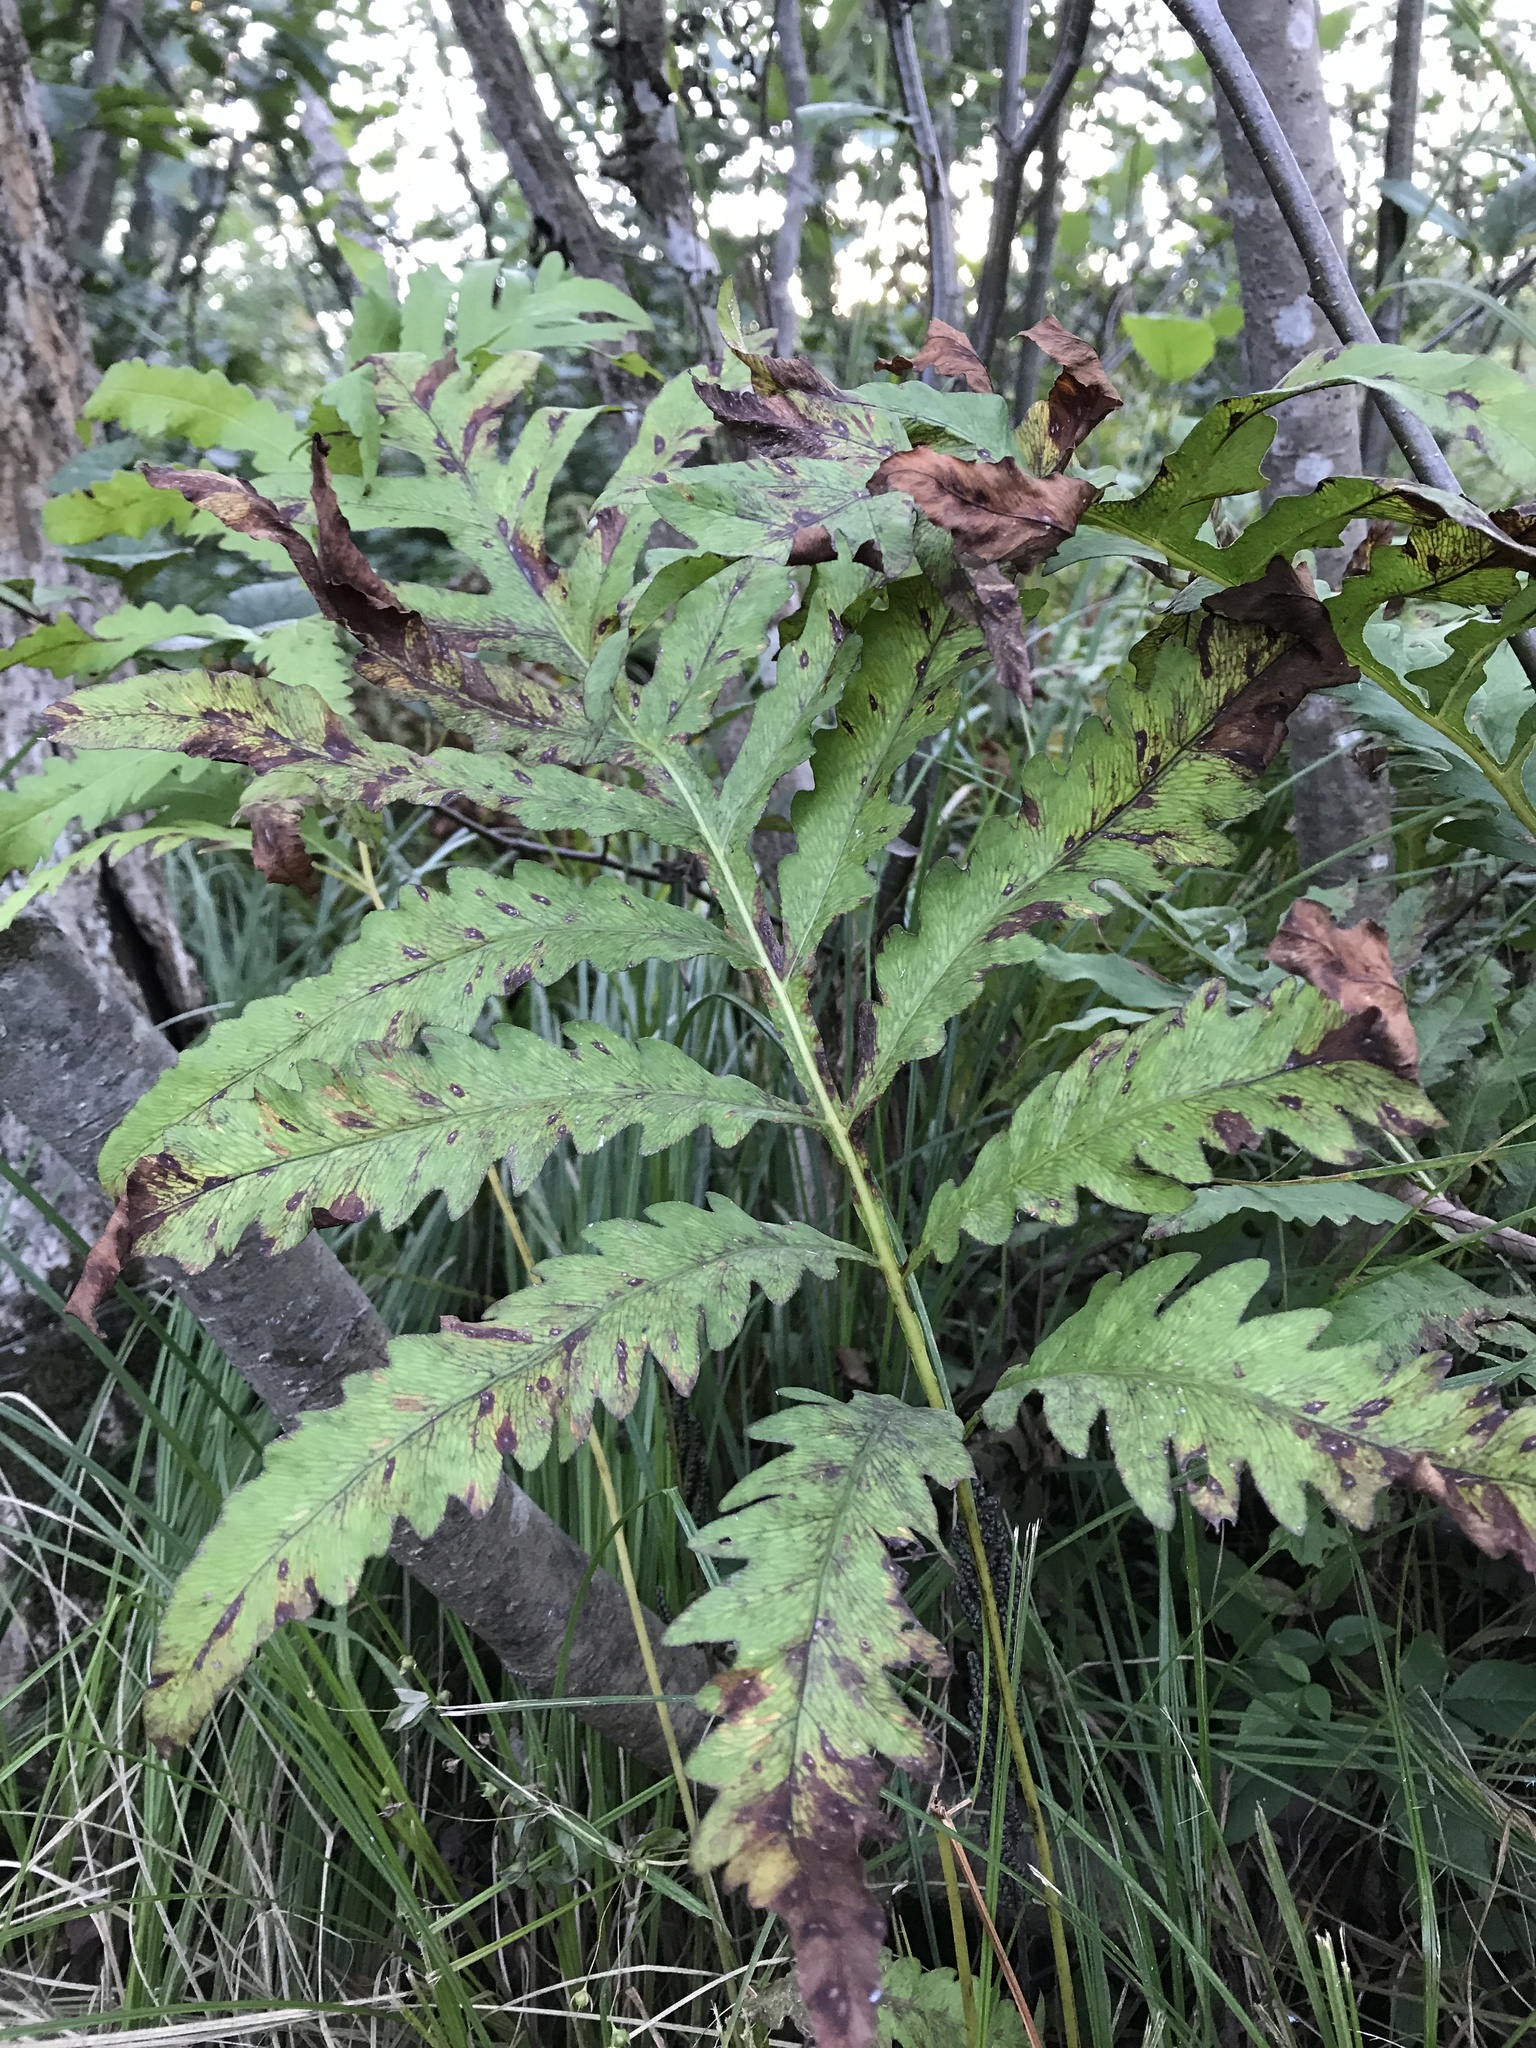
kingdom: Plantae
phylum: Tracheophyta
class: Polypodiopsida
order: Polypodiales
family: Onocleaceae
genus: Onoclea
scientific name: Onoclea sensibilis
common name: Sensitive fern
